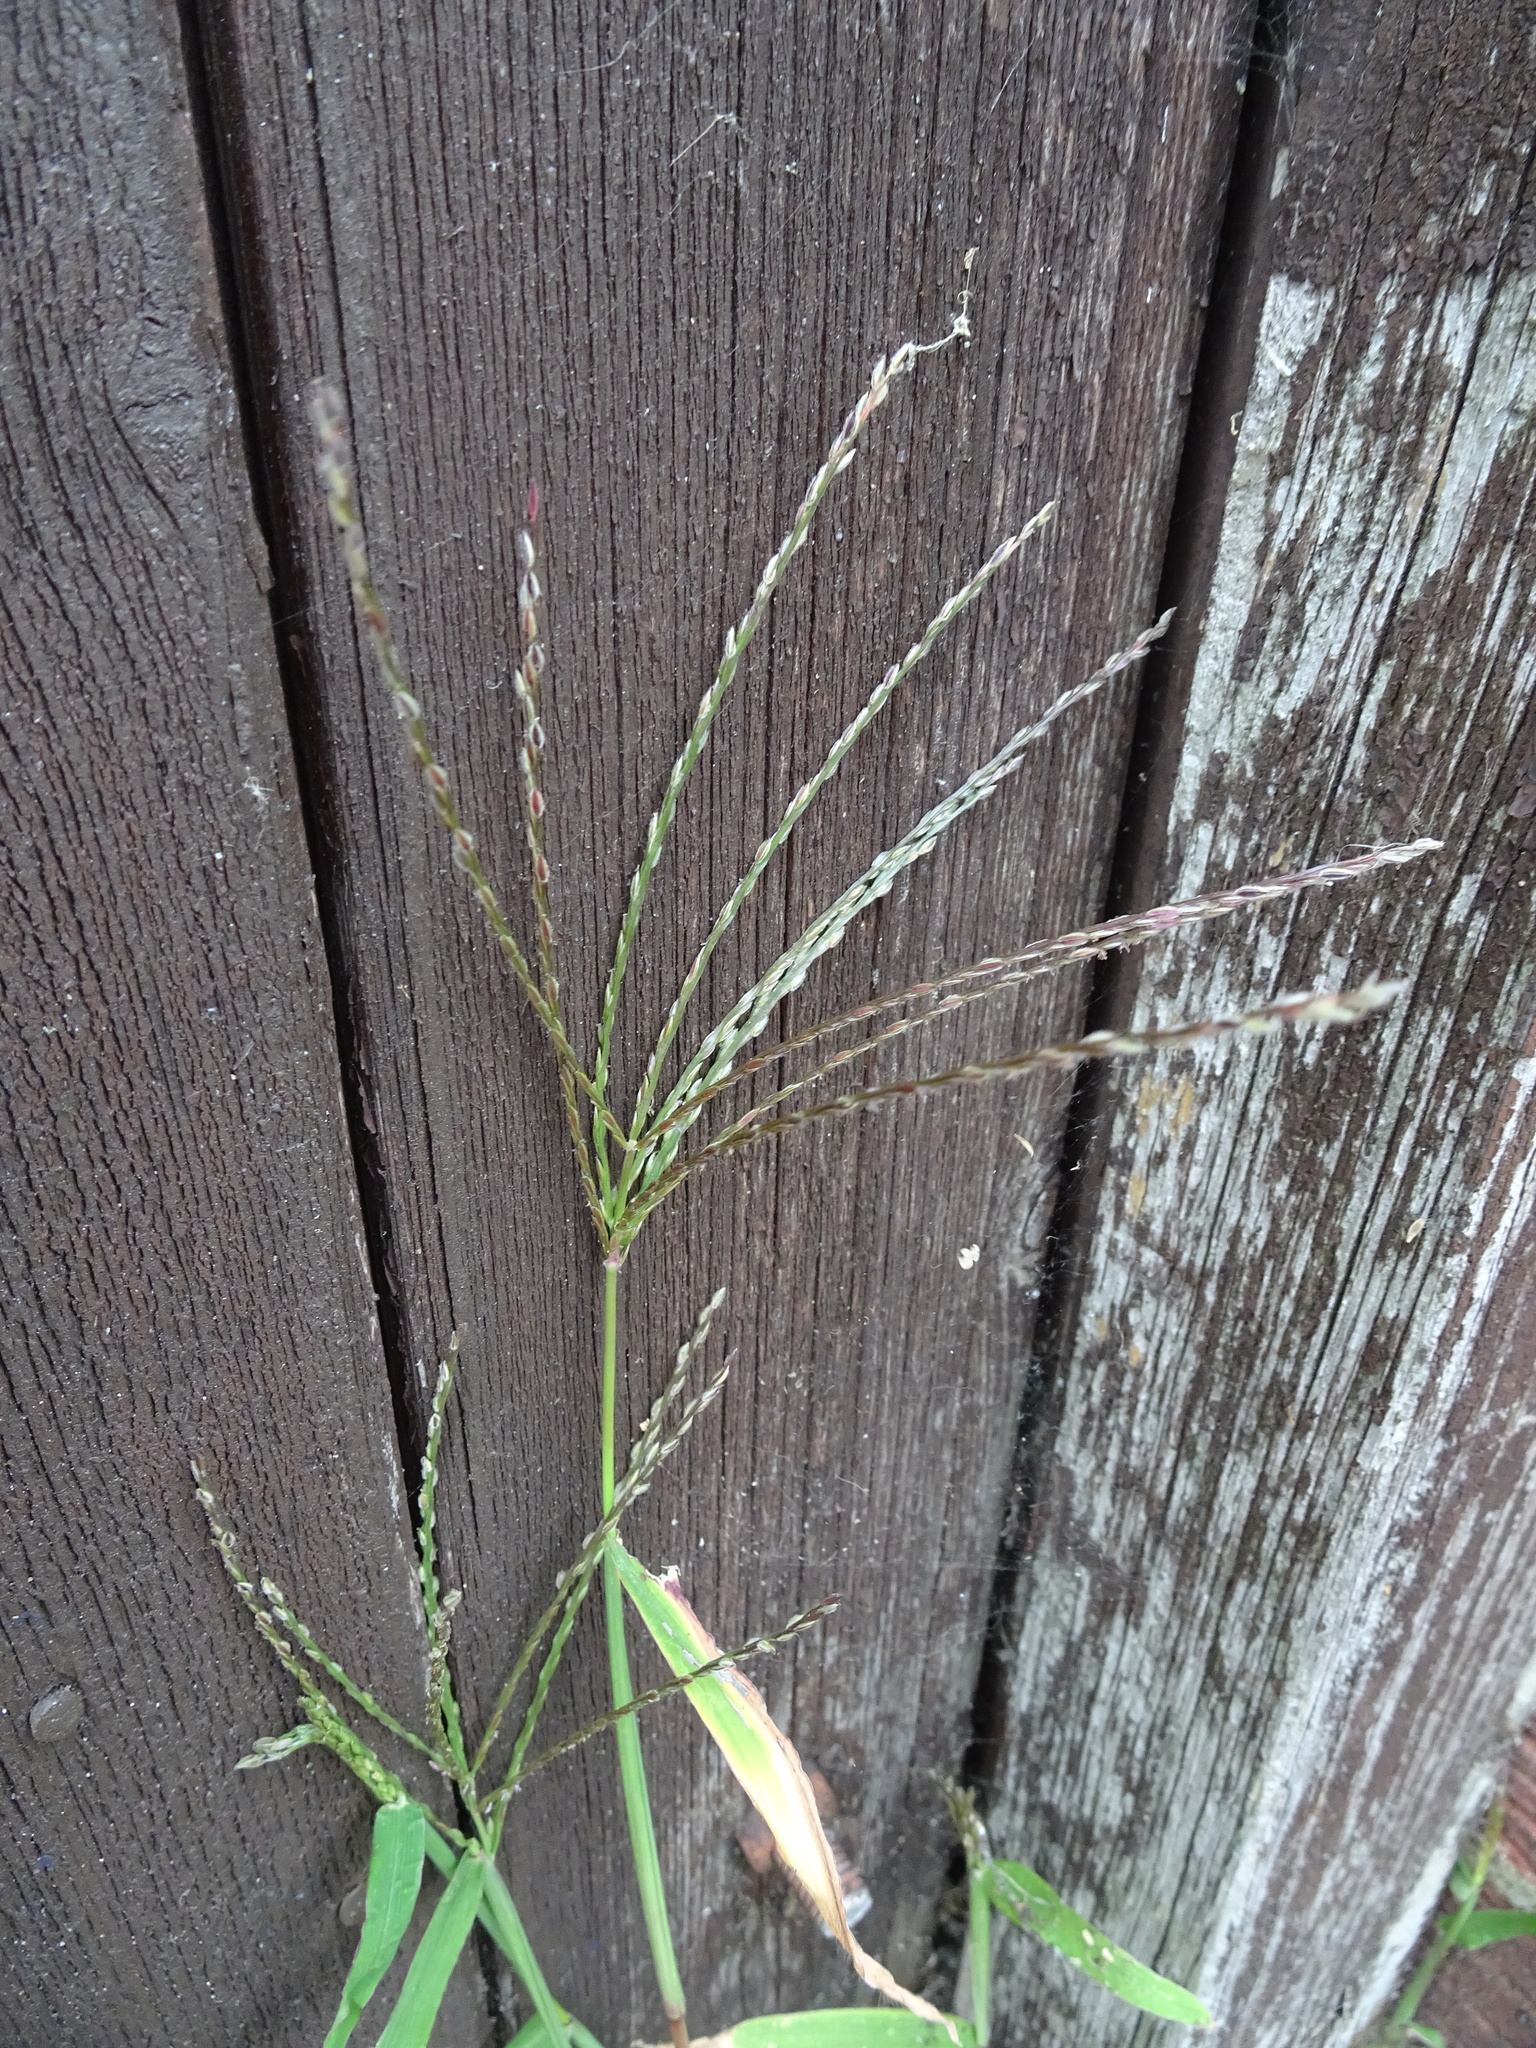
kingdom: Plantae
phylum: Tracheophyta
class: Liliopsida
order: Poales
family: Poaceae
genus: Digitaria
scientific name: Digitaria sanguinalis
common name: Hairy crabgrass
